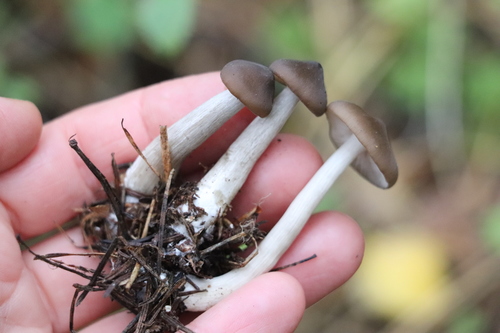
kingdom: Fungi
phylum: Basidiomycota
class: Agaricomycetes
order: Agaricales
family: Entolomataceae
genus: Entoloma
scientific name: Entoloma
